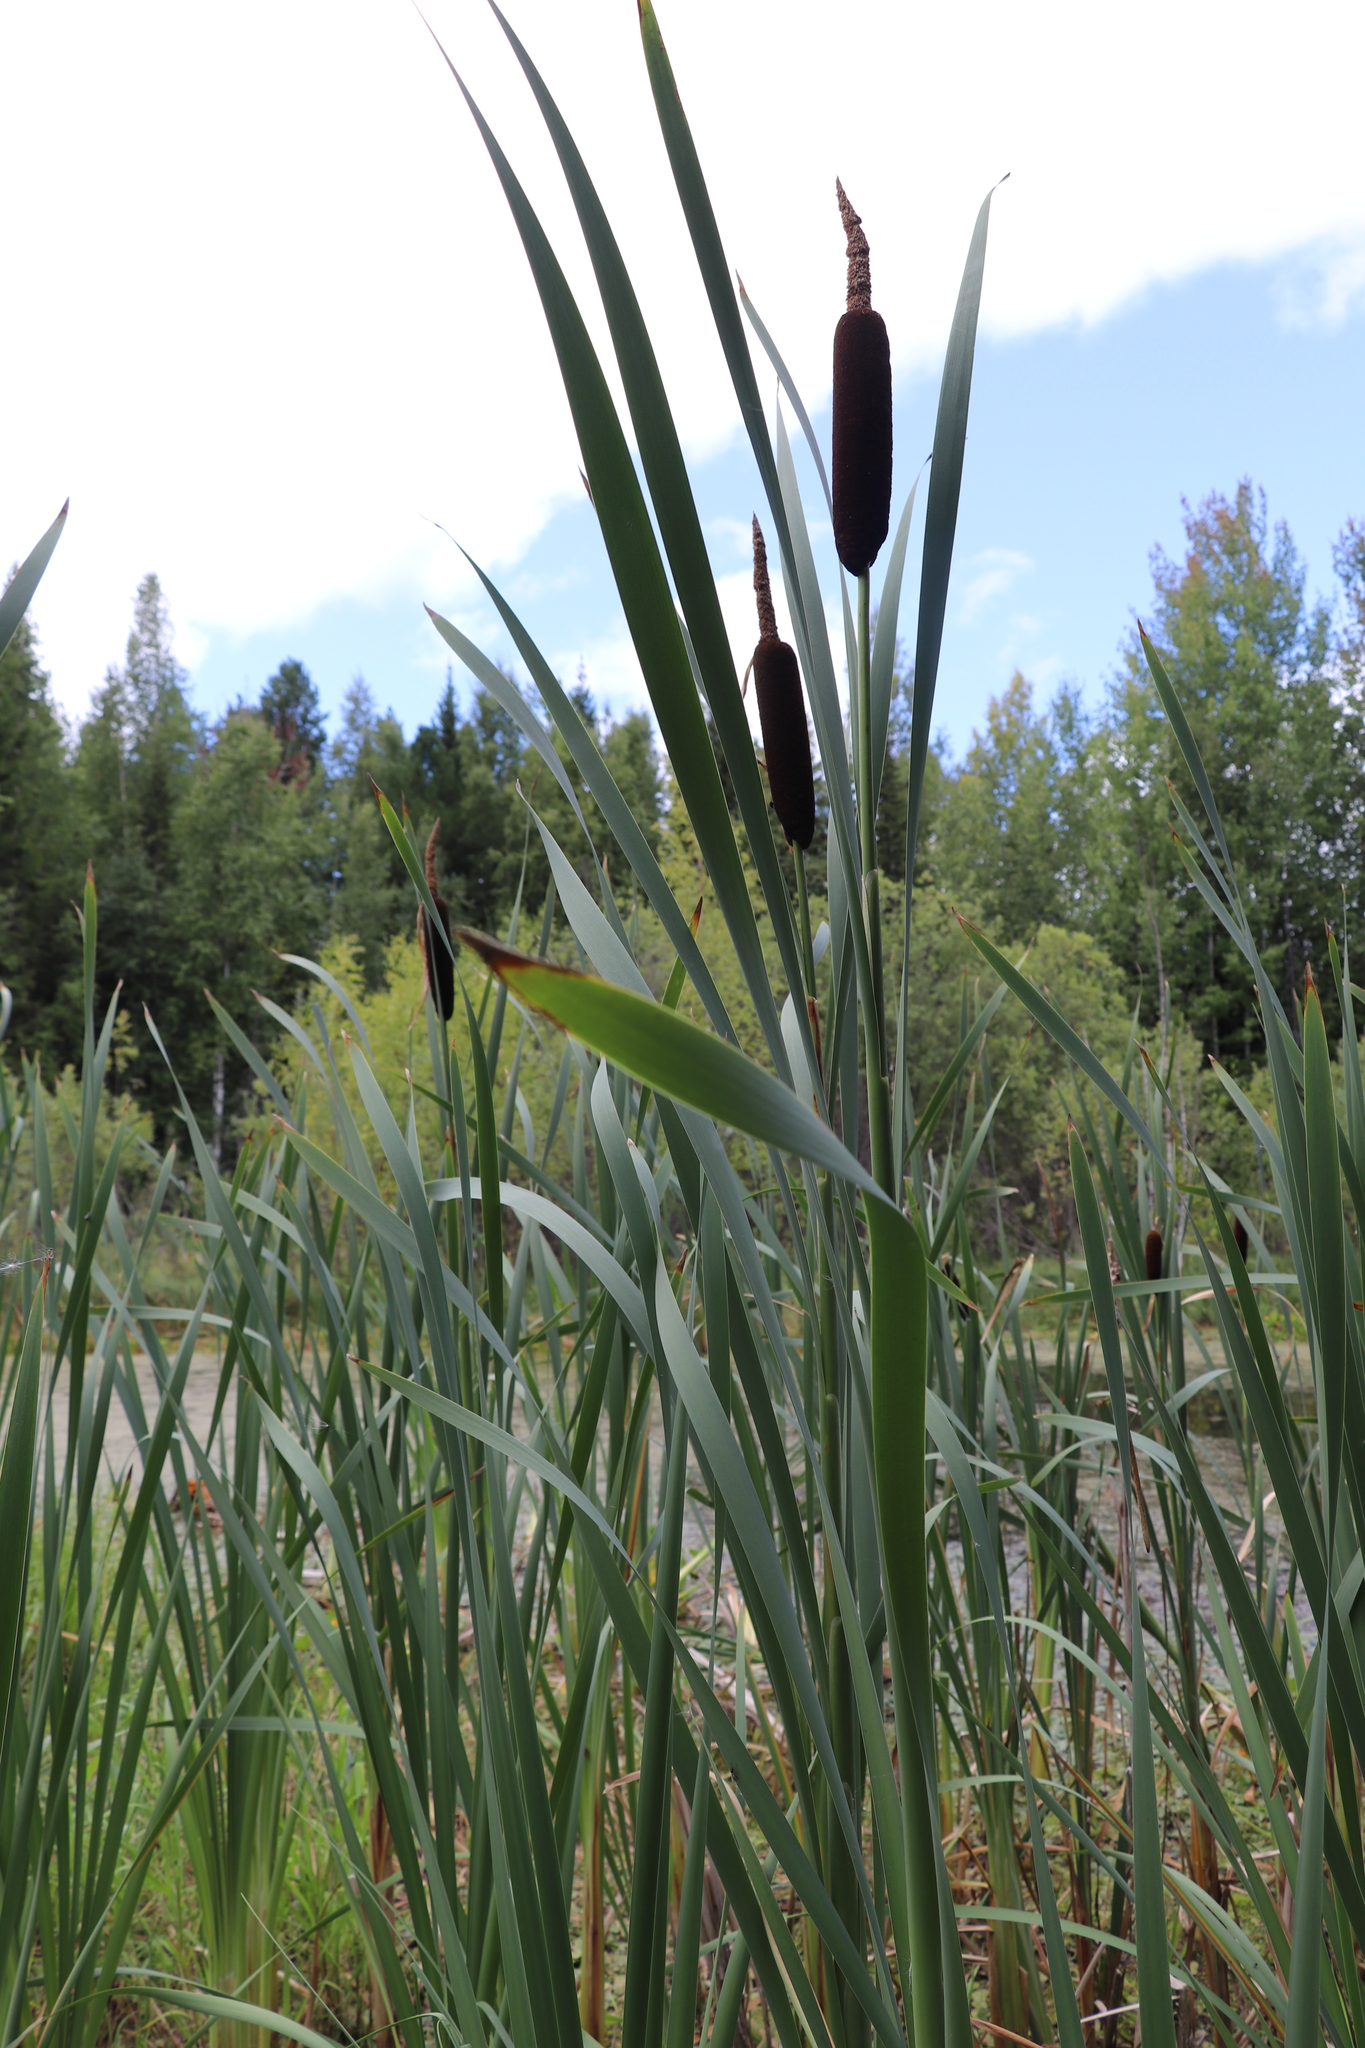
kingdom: Plantae
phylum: Tracheophyta
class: Liliopsida
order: Poales
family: Typhaceae
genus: Typha
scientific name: Typha latifolia
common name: Broadleaf cattail
